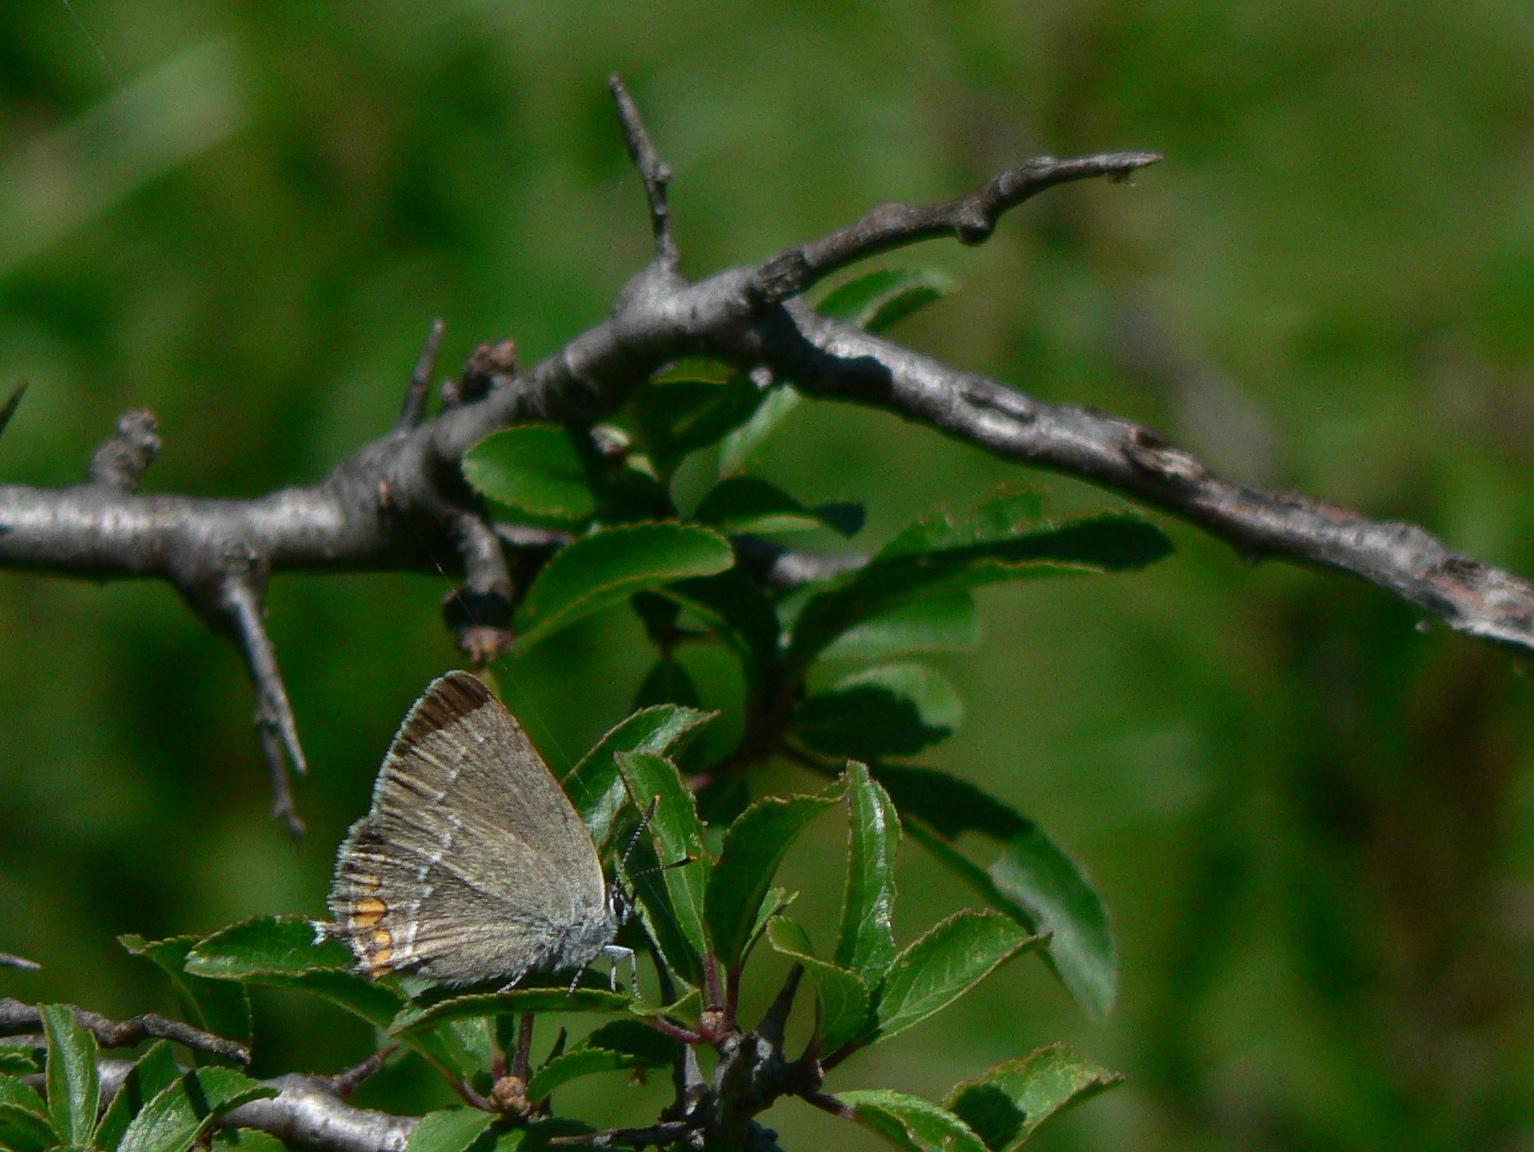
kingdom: Animalia
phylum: Arthropoda
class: Insecta
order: Lepidoptera
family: Lycaenidae
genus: Strymon
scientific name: Strymon acaciae
